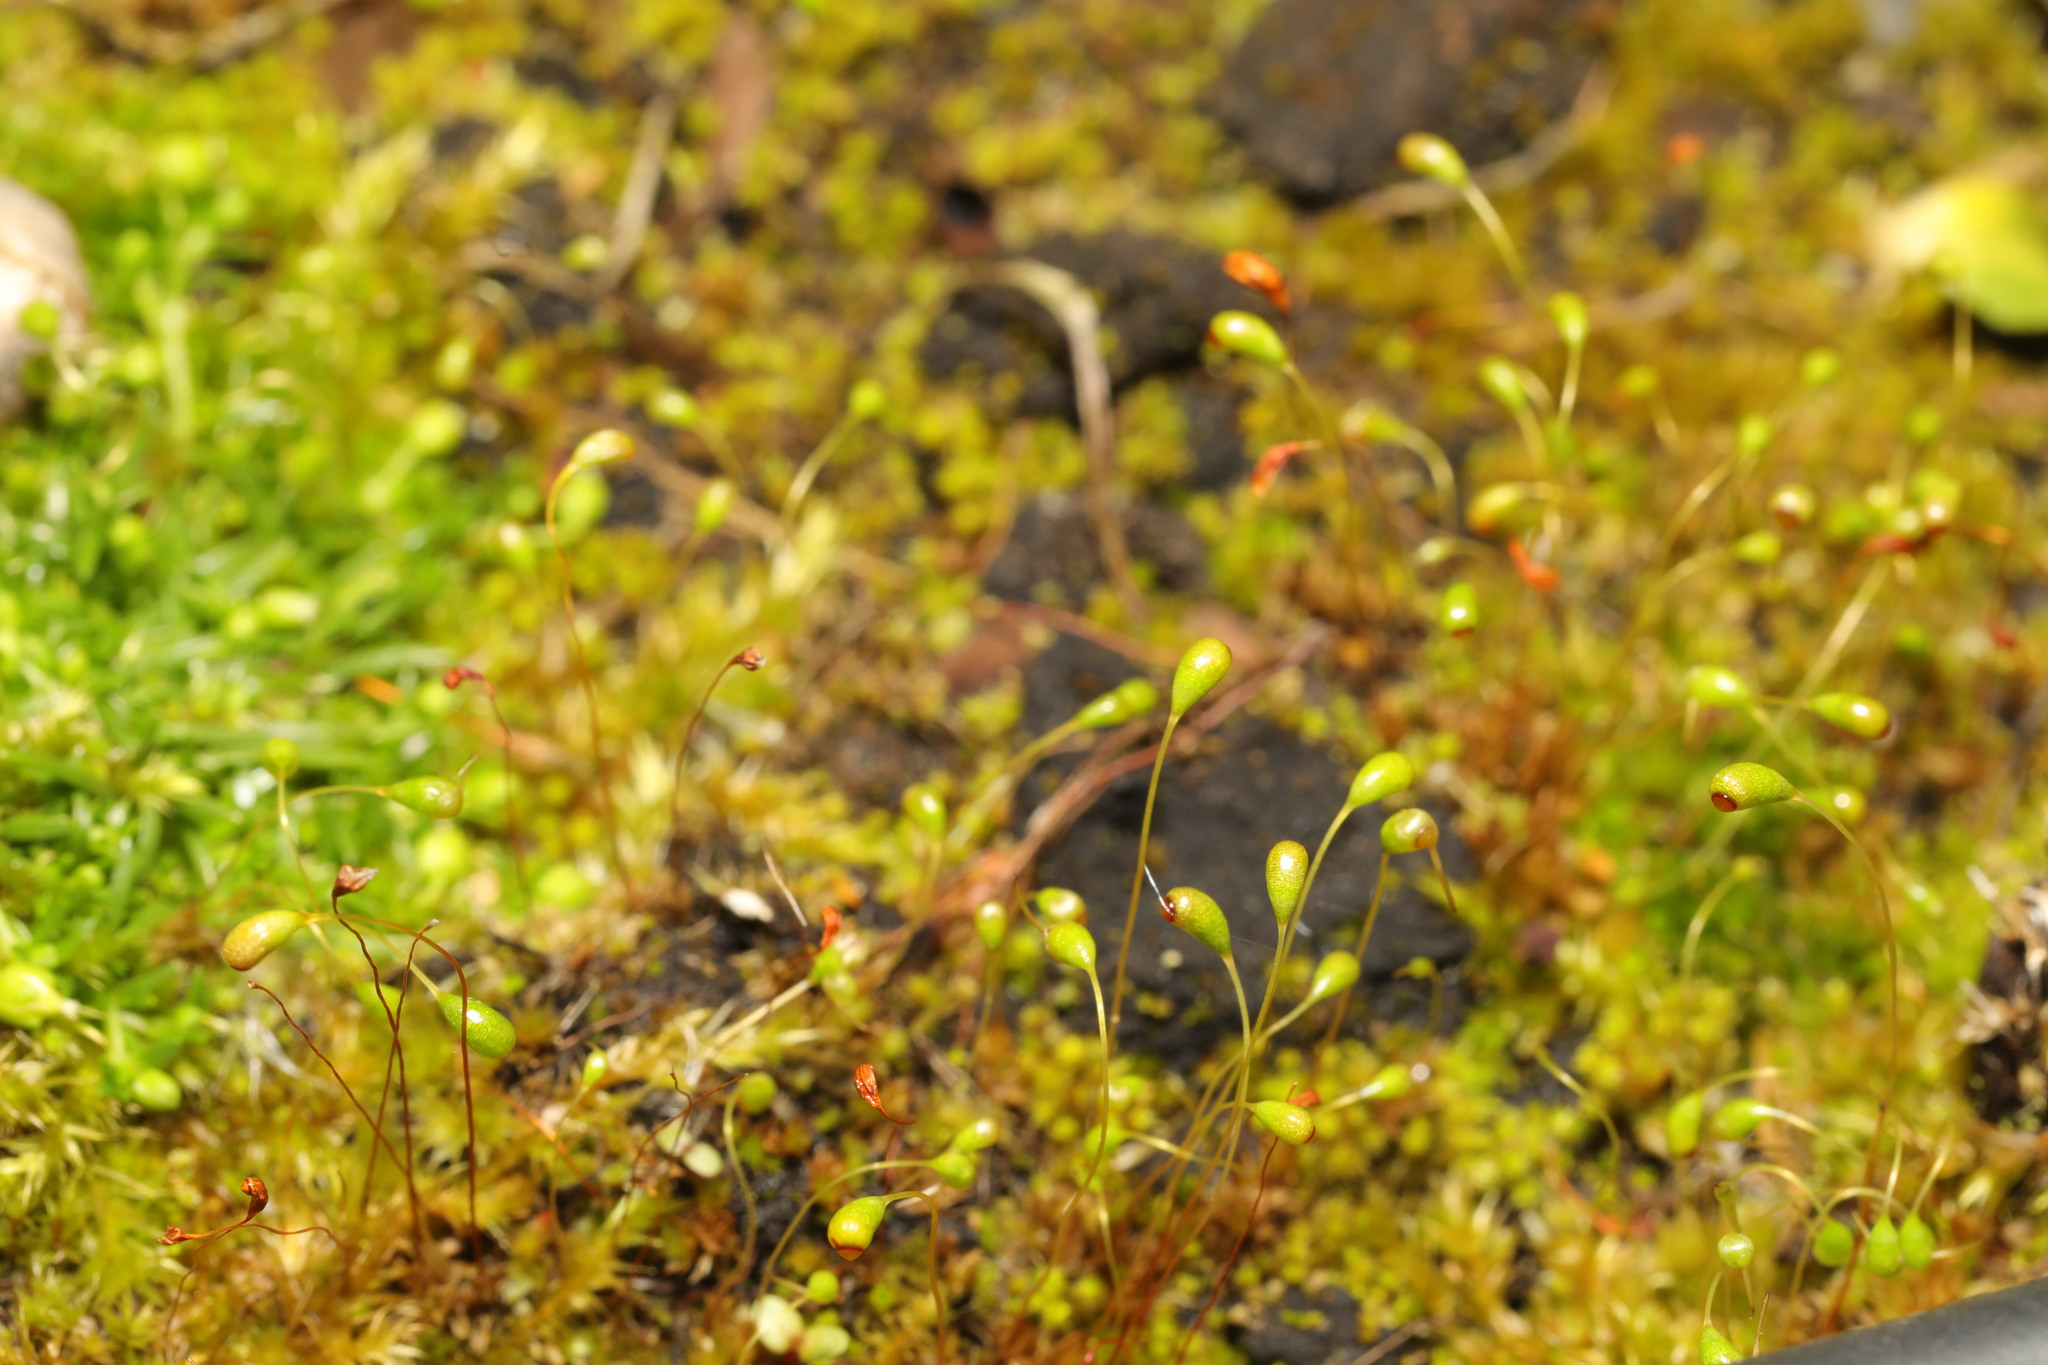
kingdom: Plantae
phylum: Bryophyta
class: Bryopsida
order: Funariales
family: Funariaceae
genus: Funaria
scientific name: Funaria hygrometrica
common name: Common cord moss
